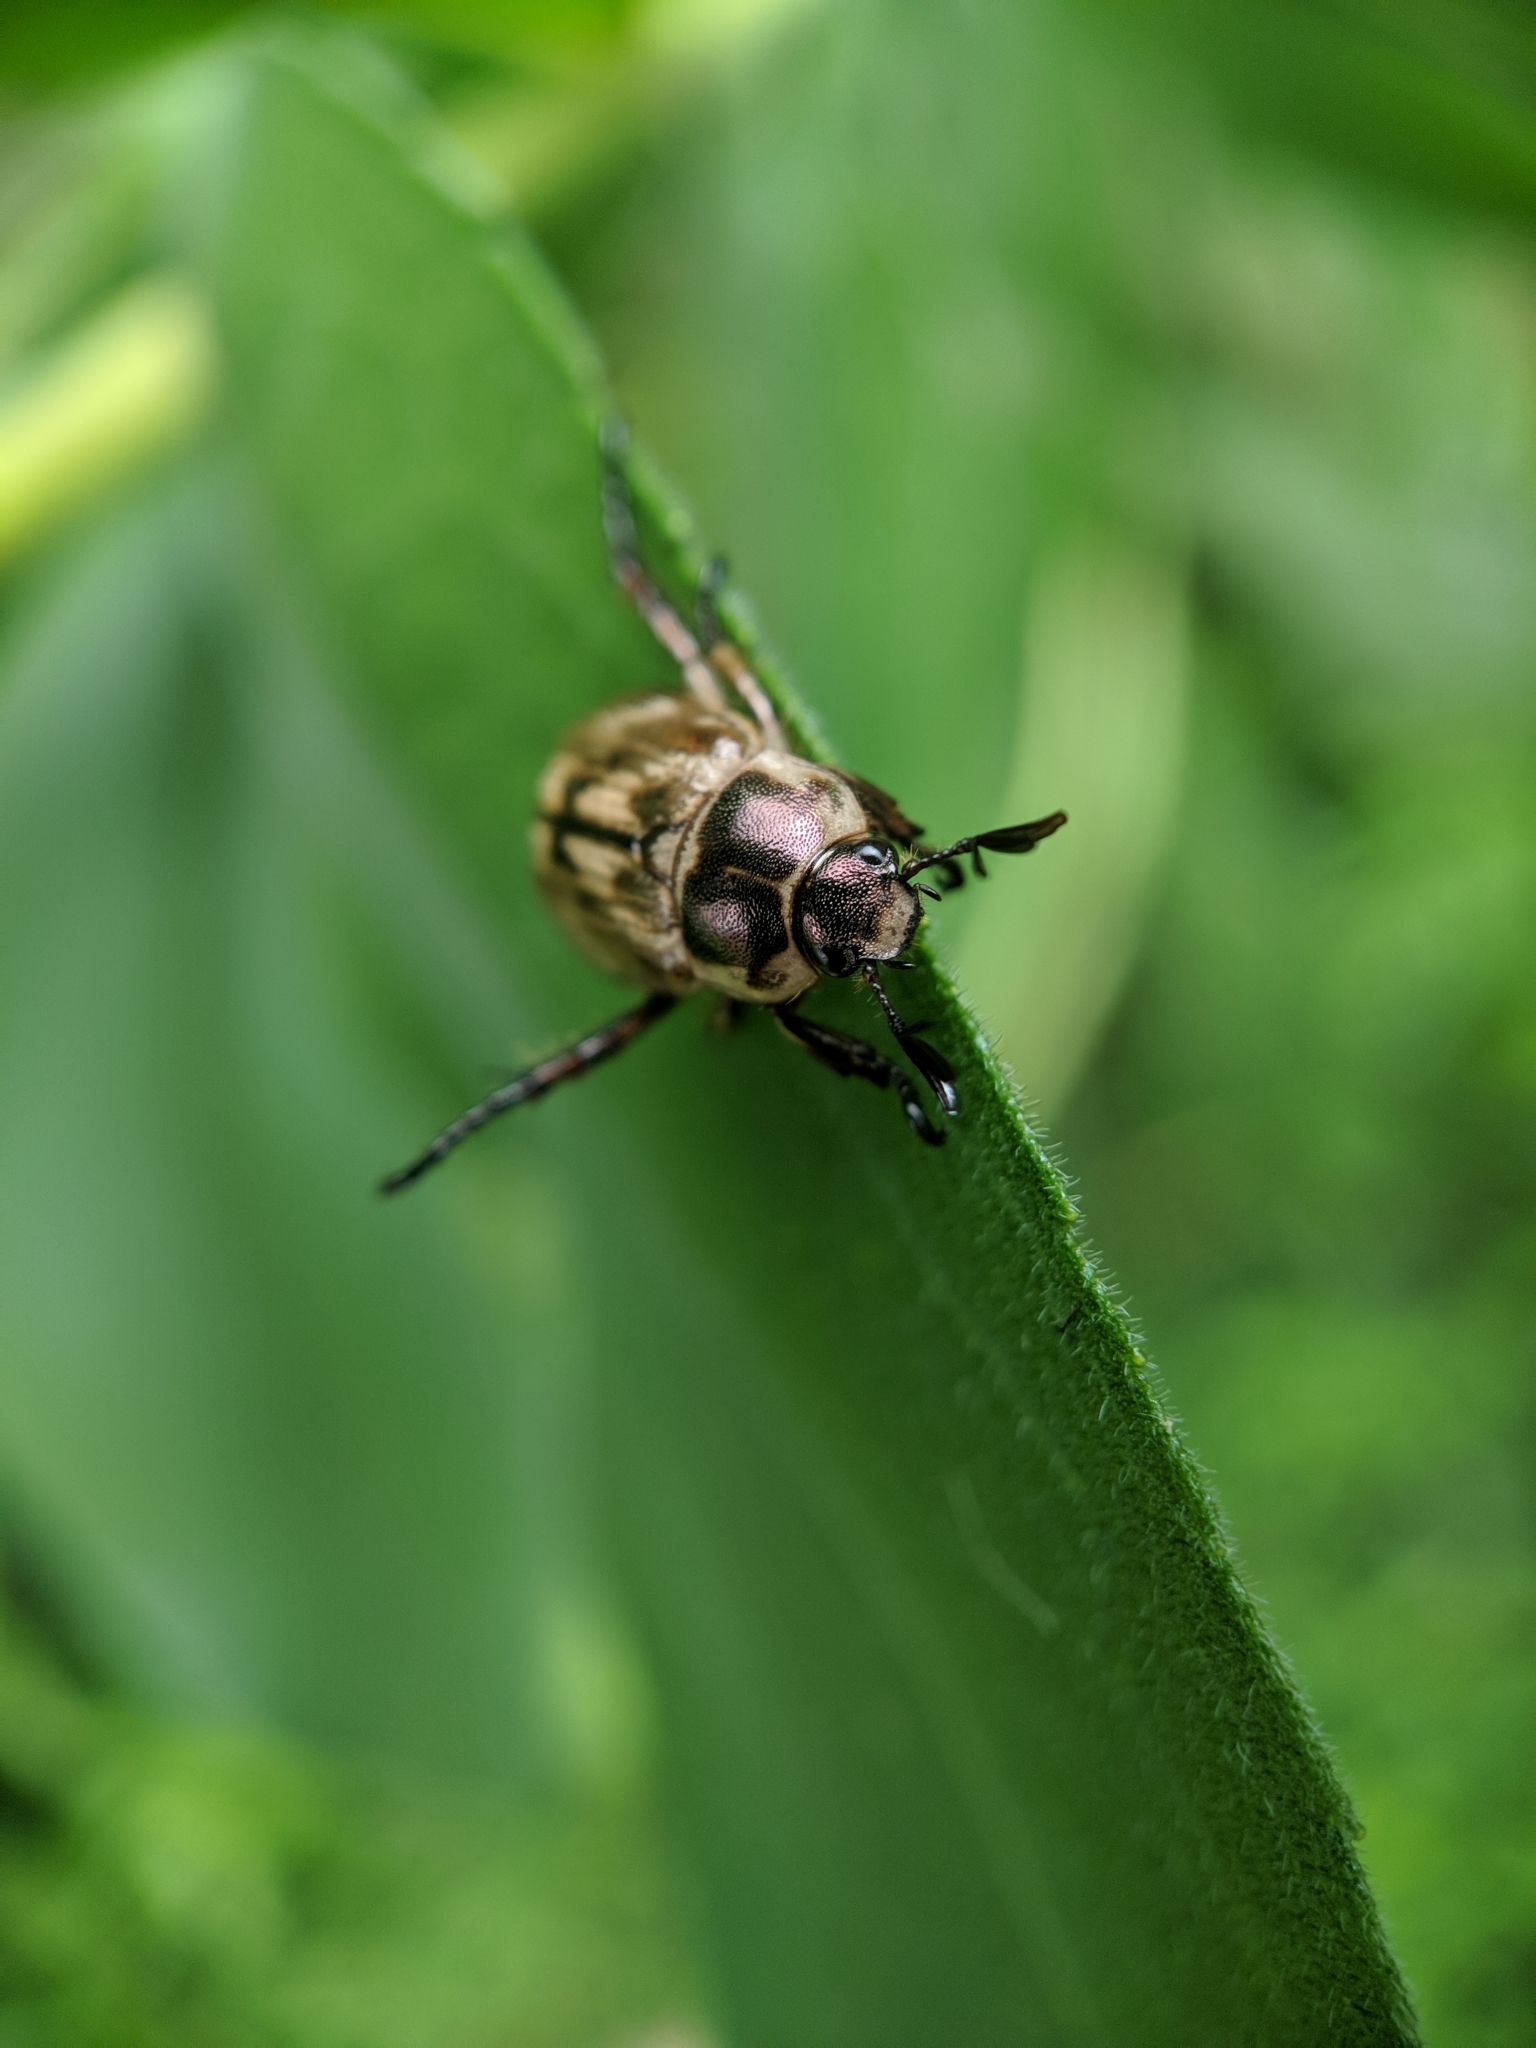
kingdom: Animalia
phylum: Arthropoda
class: Insecta
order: Coleoptera
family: Scarabaeidae
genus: Exomala
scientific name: Exomala orientalis
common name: Oriental beetle
